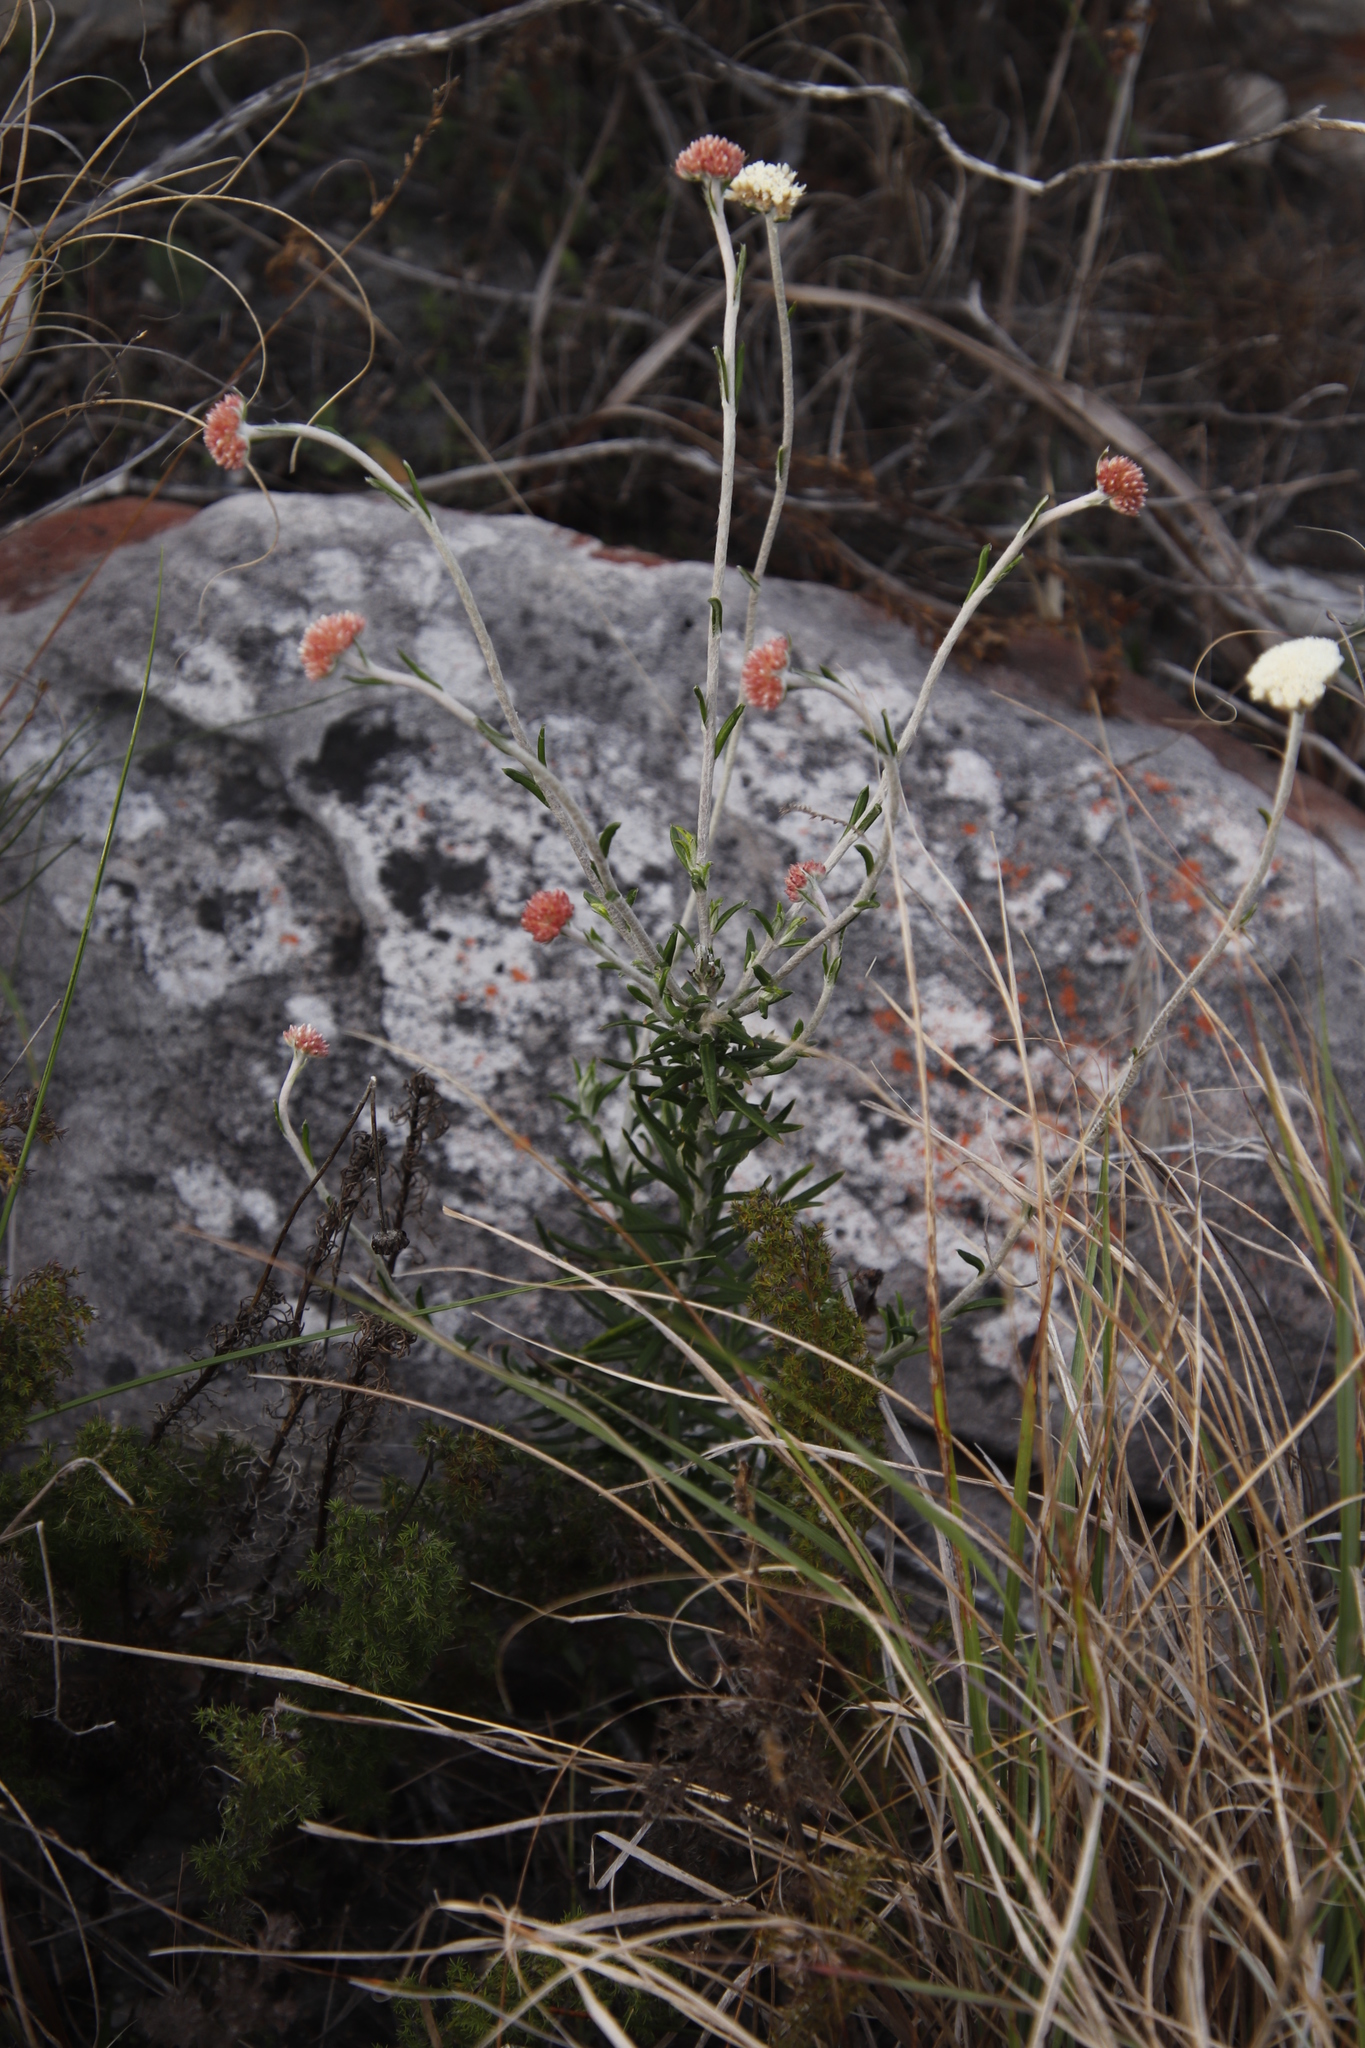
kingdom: Plantae
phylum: Tracheophyta
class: Magnoliopsida
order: Asterales
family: Asteraceae
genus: Anaxeton
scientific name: Anaxeton laeve
